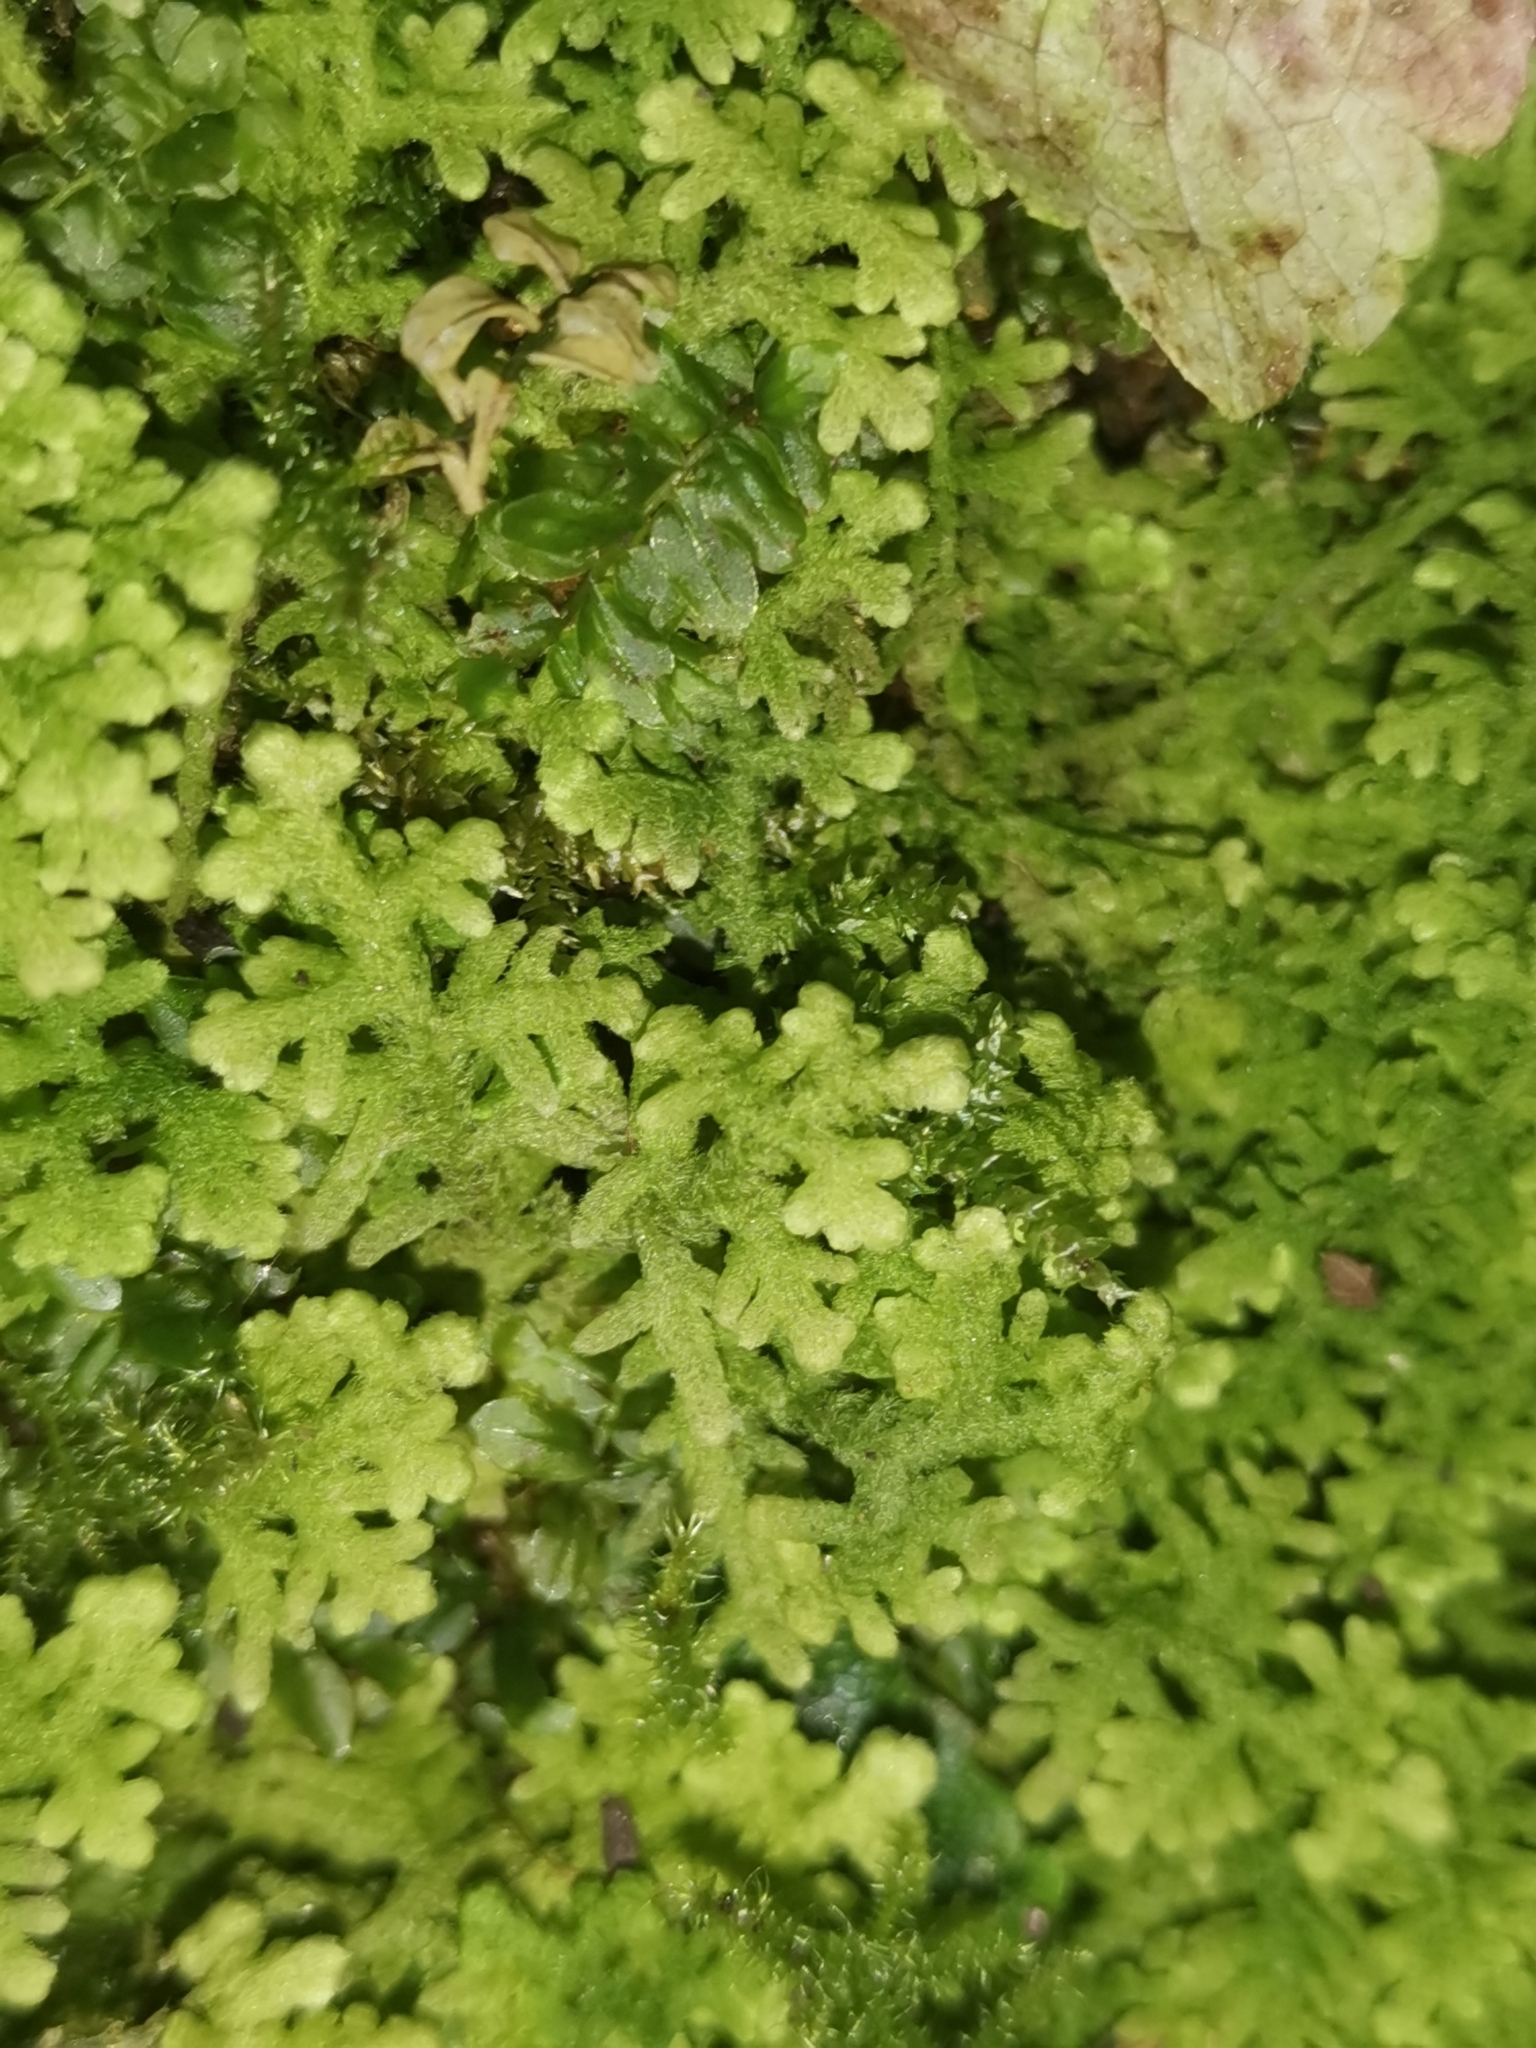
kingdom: Plantae
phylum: Marchantiophyta
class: Jungermanniopsida
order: Jungermanniales
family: Trichocoleaceae
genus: Trichocolea
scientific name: Trichocolea tomentella
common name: Woolly liverwort
